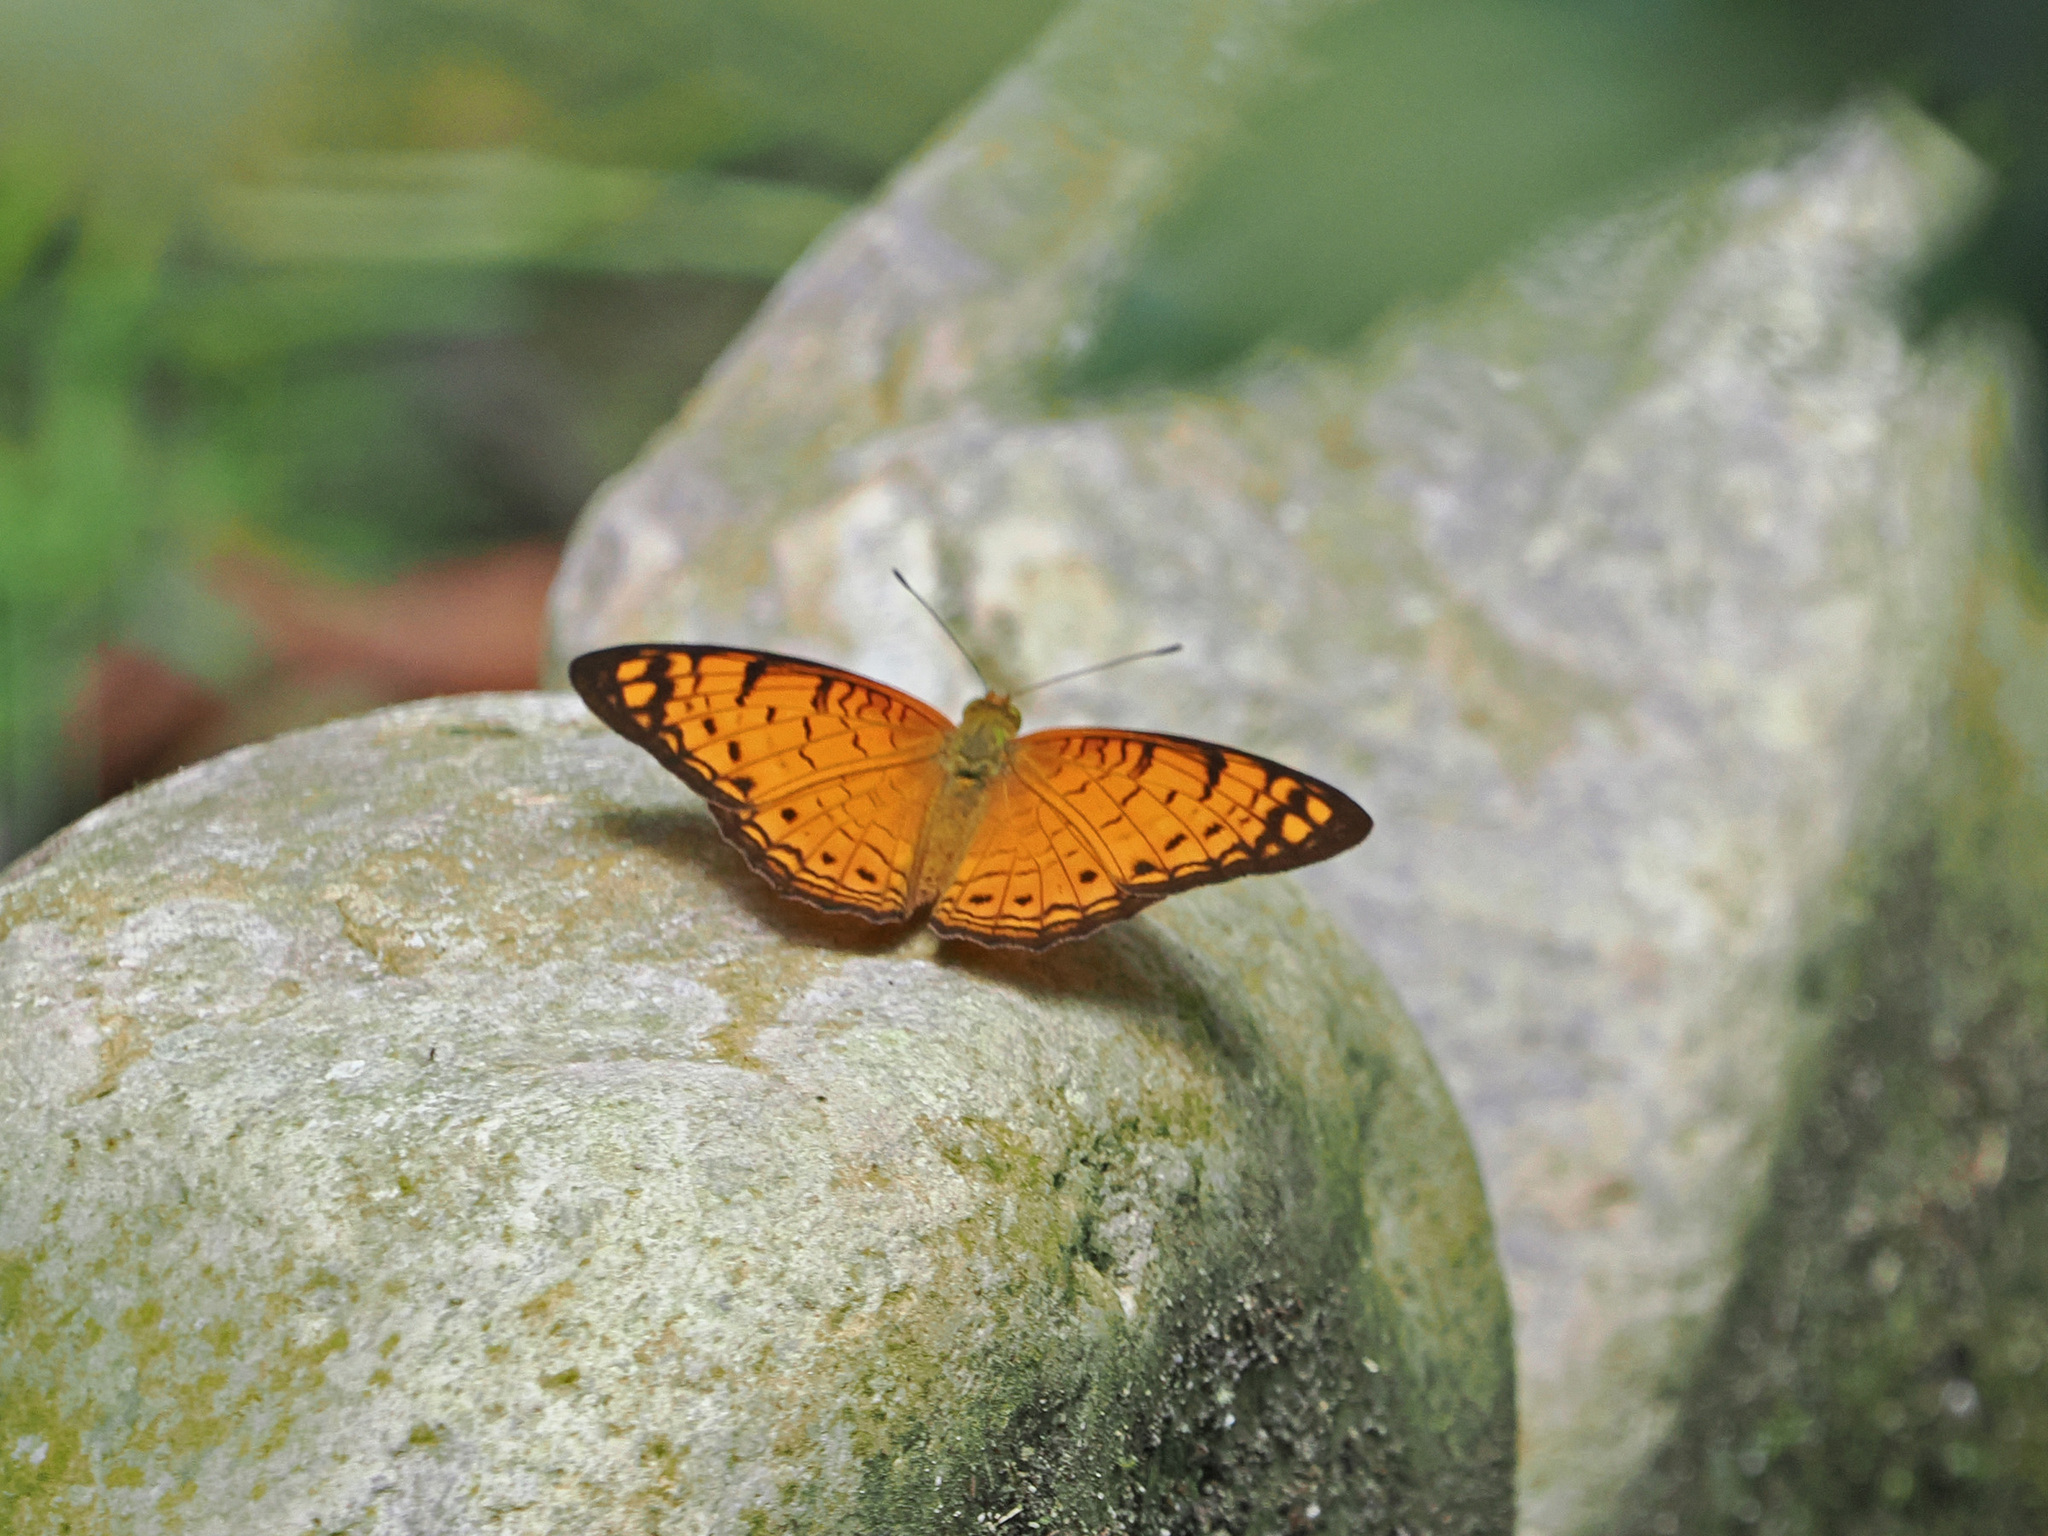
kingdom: Animalia
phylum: Arthropoda
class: Insecta
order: Lepidoptera
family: Nymphalidae
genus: Phalanta
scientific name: Phalanta alcippe
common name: Small leopard
